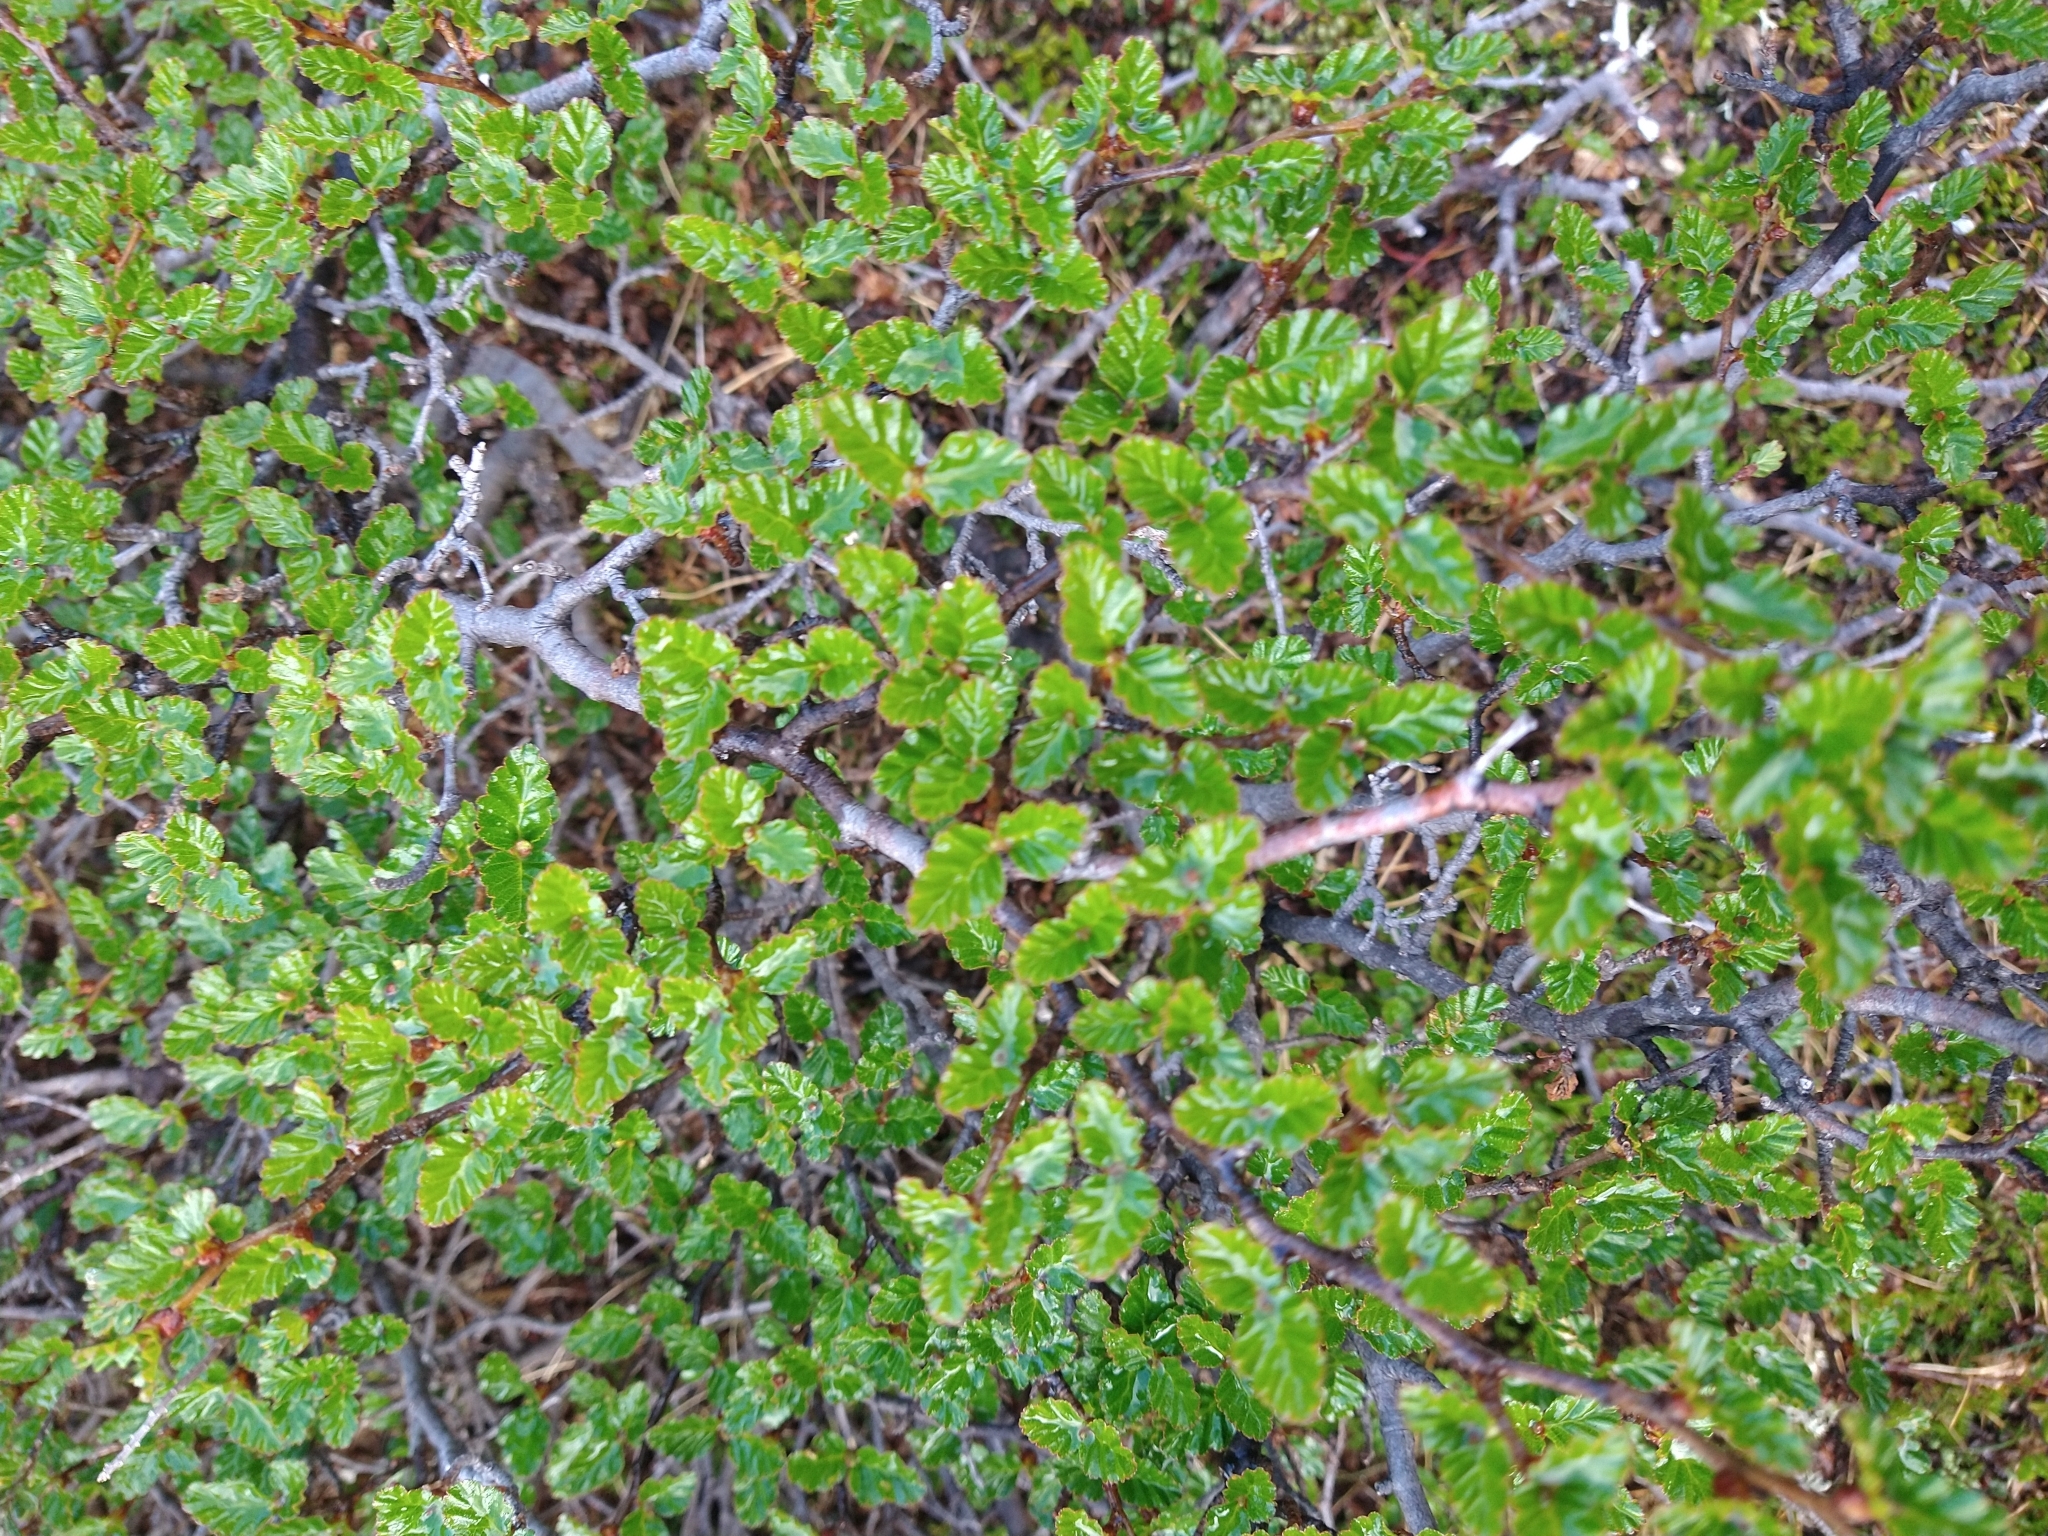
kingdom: Plantae
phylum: Tracheophyta
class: Magnoliopsida
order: Fagales
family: Nothofagaceae
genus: Nothofagus
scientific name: Nothofagus antarctica
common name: Antarctic beech
